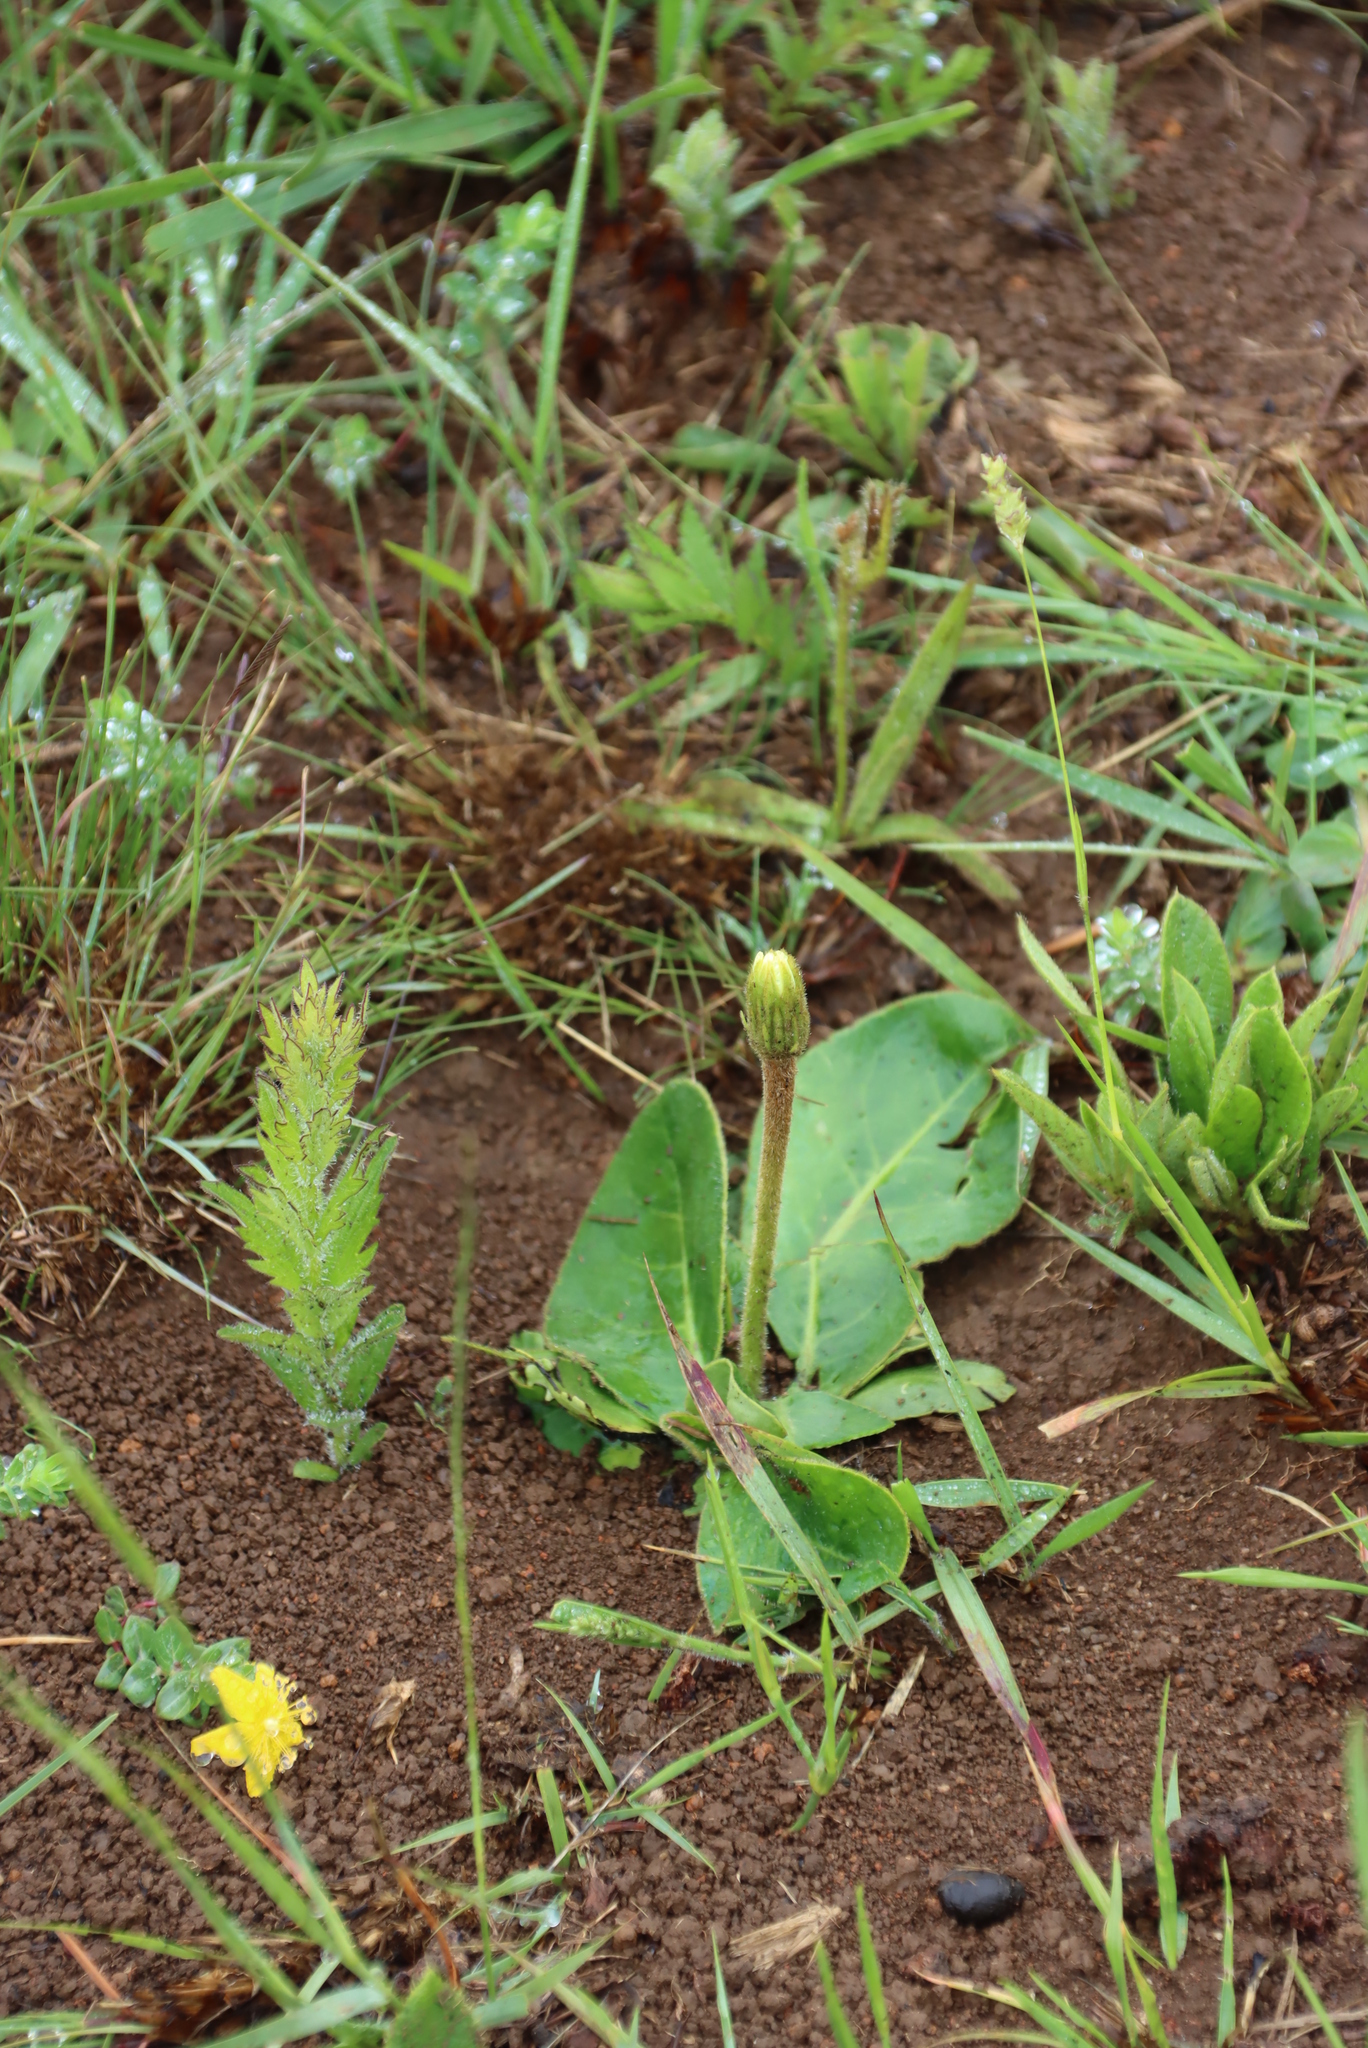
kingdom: Plantae
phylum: Tracheophyta
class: Magnoliopsida
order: Asterales
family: Asteraceae
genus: Piloselloides
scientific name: Piloselloides hirsuta
